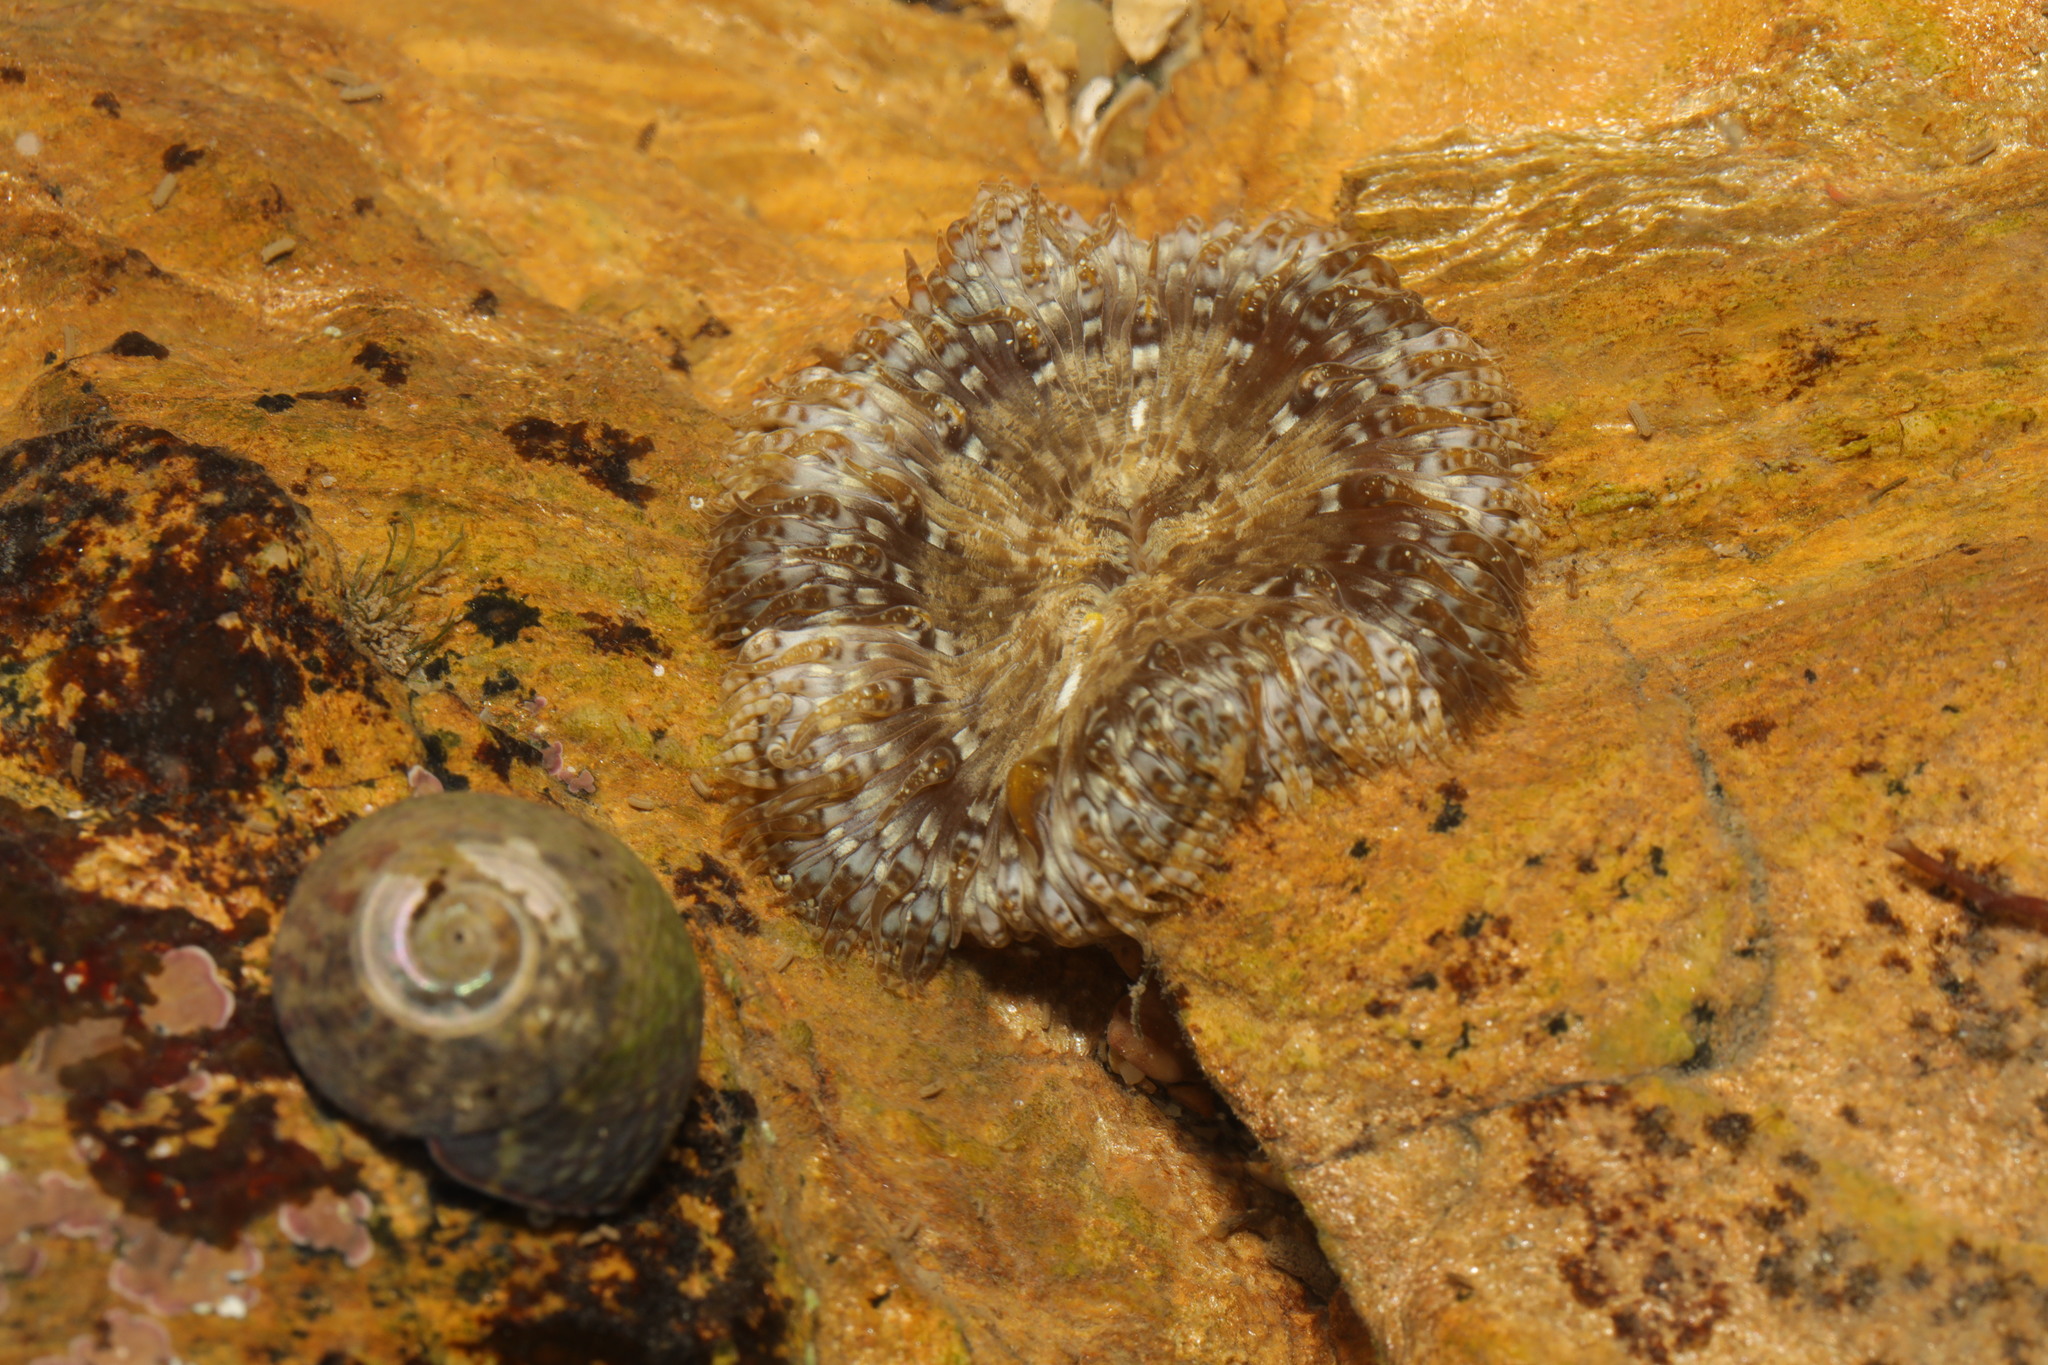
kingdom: Animalia
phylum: Cnidaria
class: Anthozoa
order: Actiniaria
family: Sagartiidae
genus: Cereus
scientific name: Cereus pedunculatus
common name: Daisy anemone
